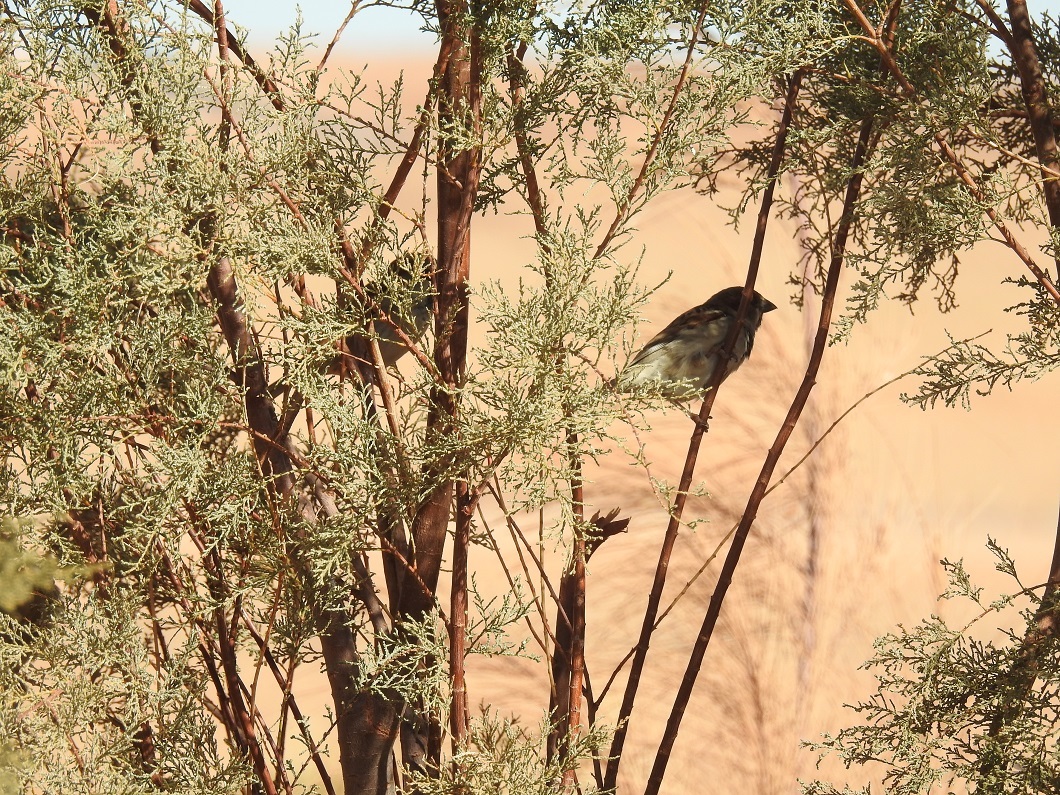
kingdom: Animalia
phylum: Chordata
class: Aves
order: Passeriformes
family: Passeridae
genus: Passer
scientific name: Passer domesticus
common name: House sparrow
